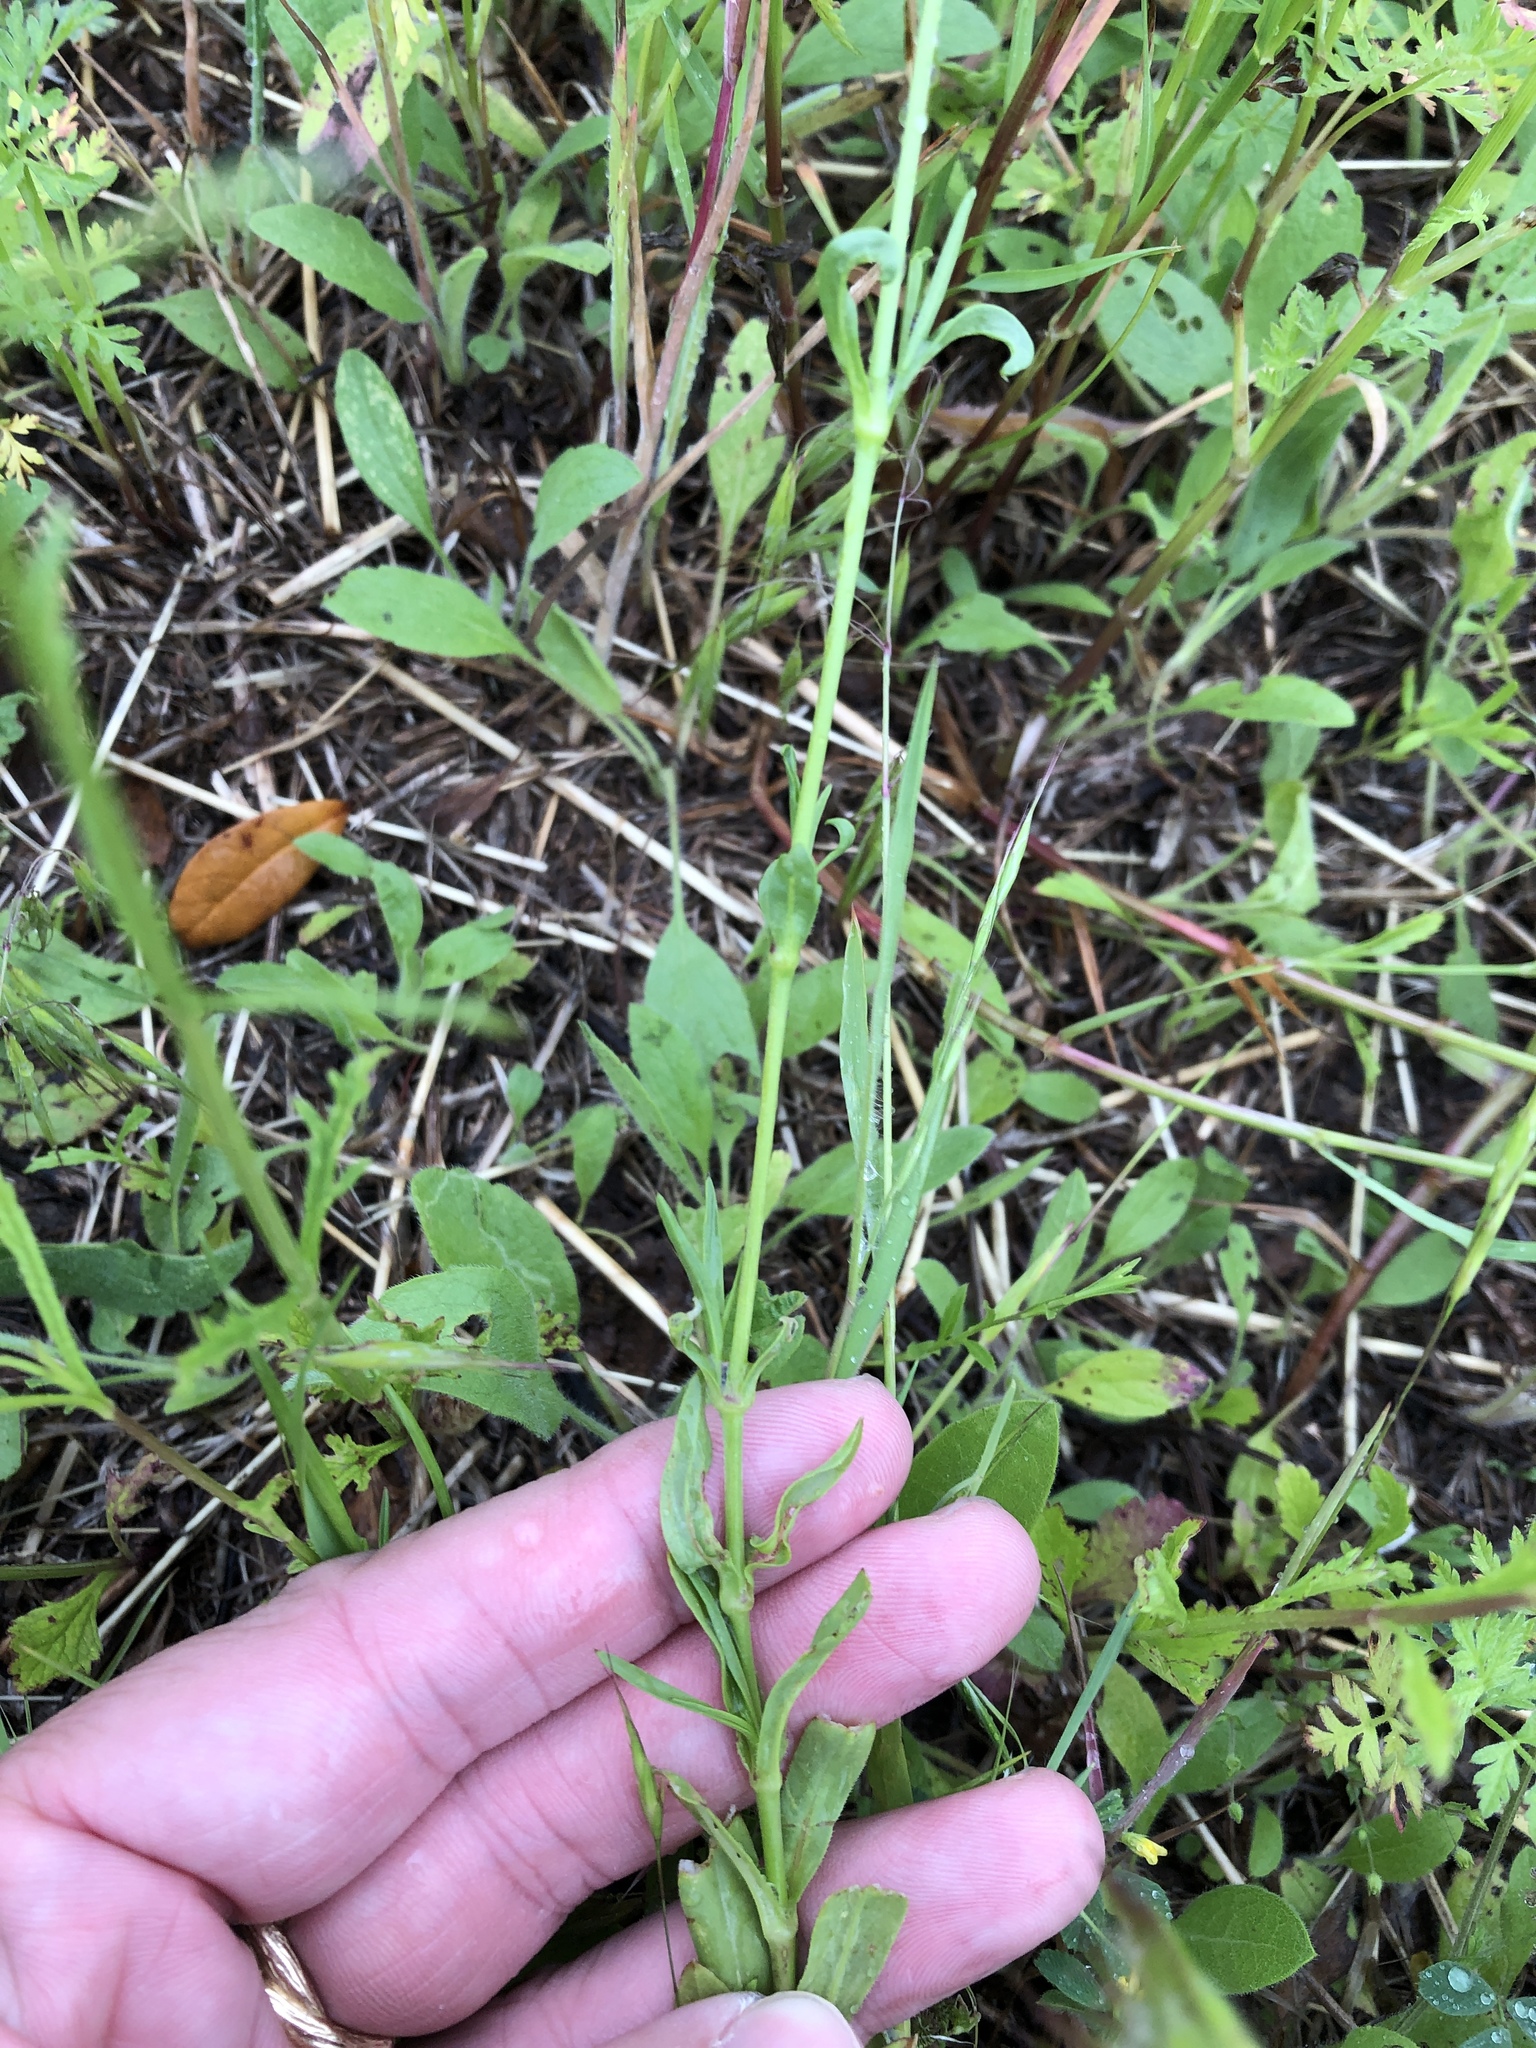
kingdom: Plantae
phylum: Tracheophyta
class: Magnoliopsida
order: Caryophyllales
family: Caryophyllaceae
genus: Silene
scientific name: Silene antirrhina
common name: Sleepy catchfly
